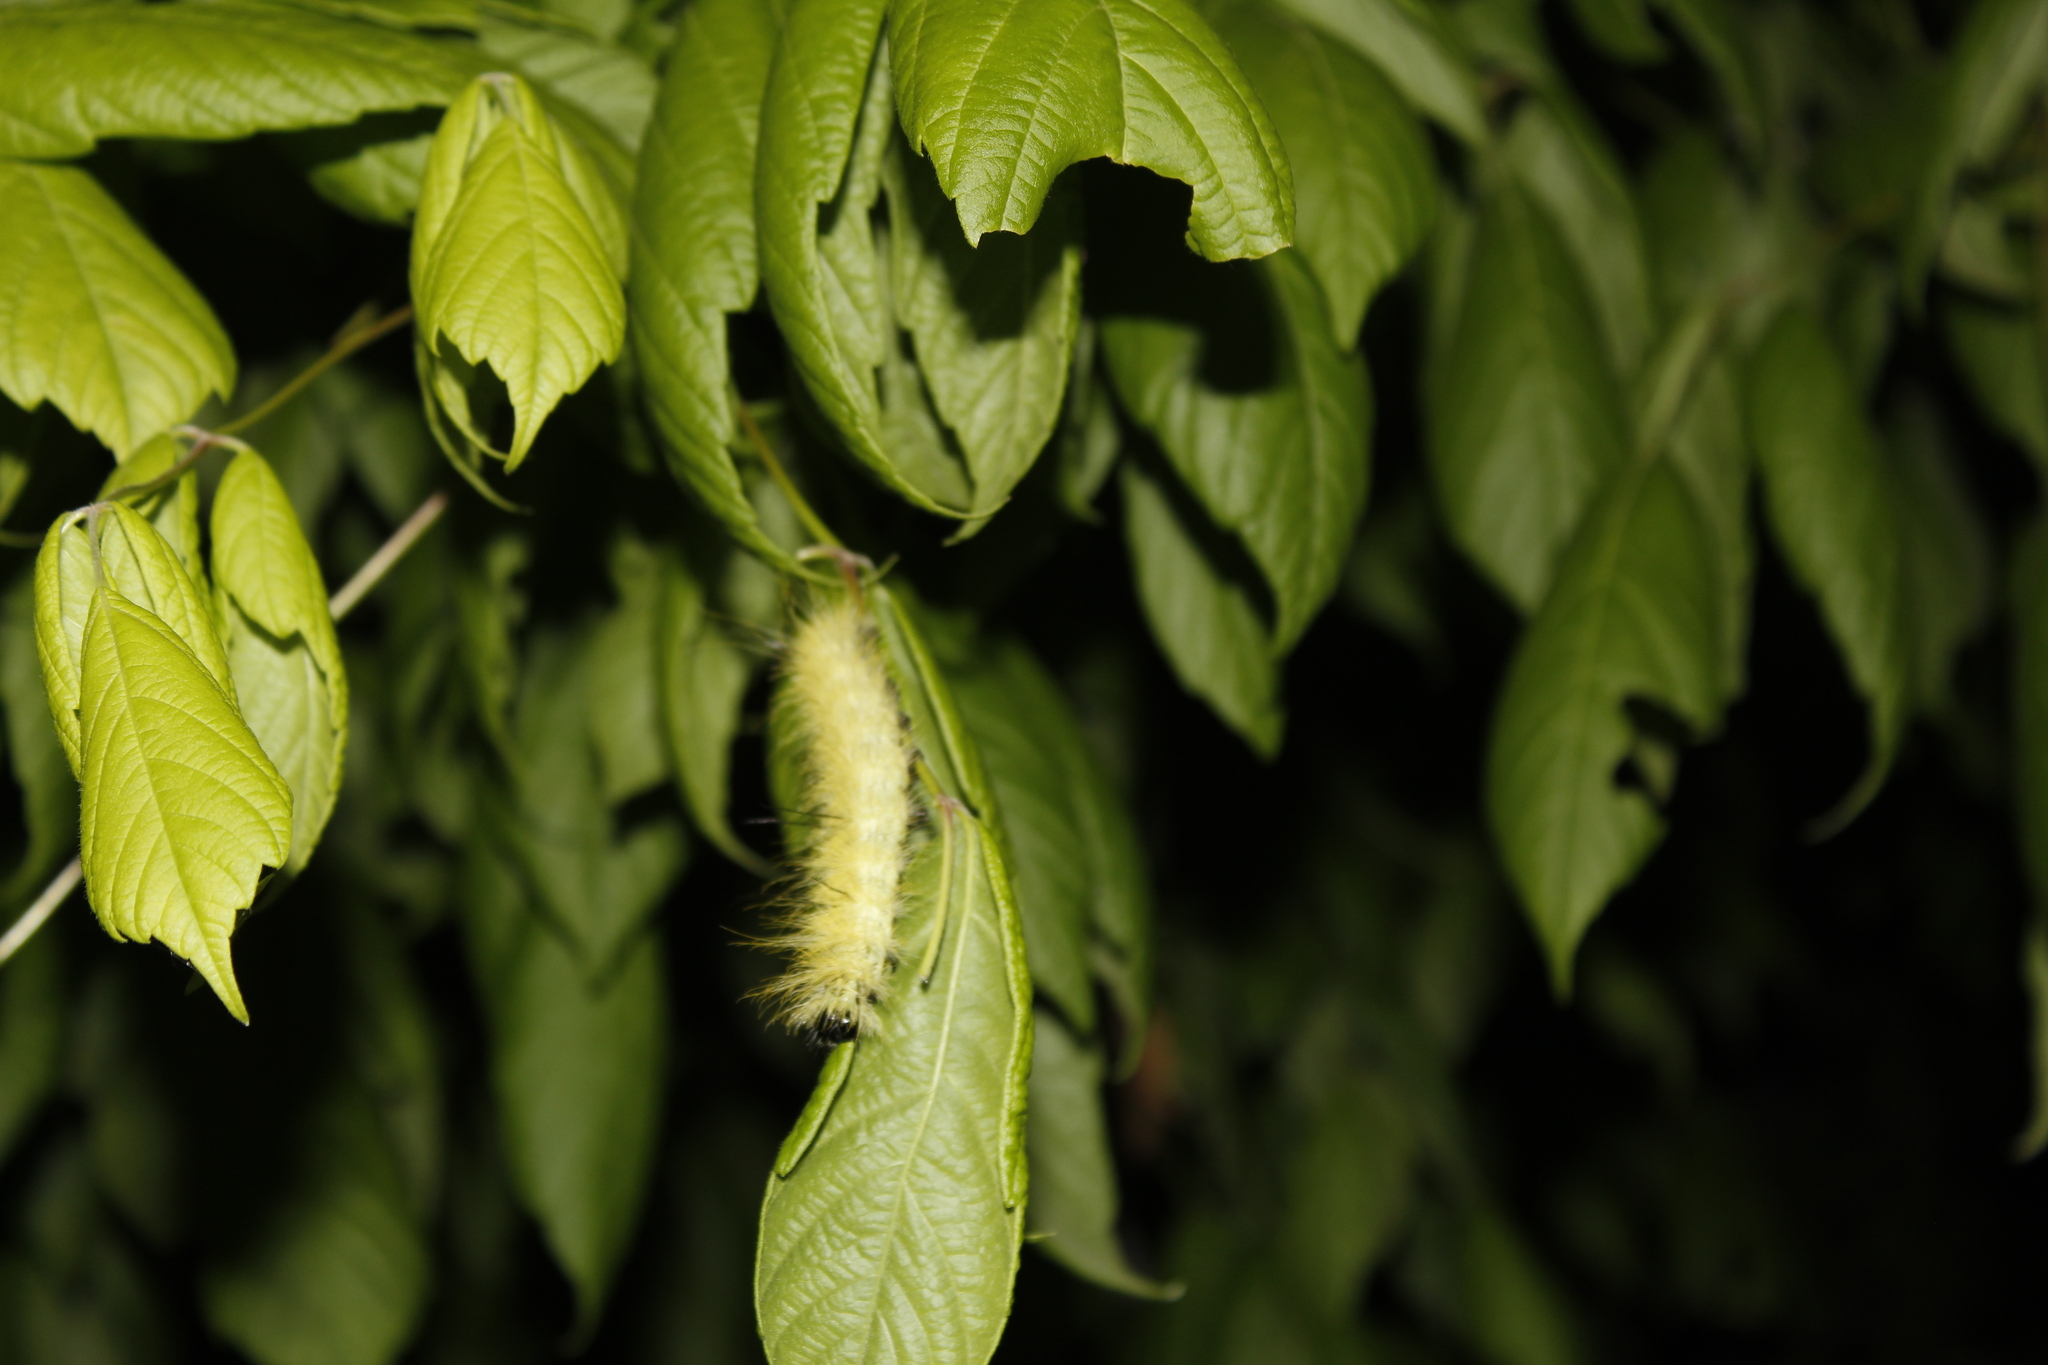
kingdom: Animalia
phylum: Arthropoda
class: Insecta
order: Lepidoptera
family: Noctuidae
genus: Acronicta
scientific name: Acronicta americana
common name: American dagger
